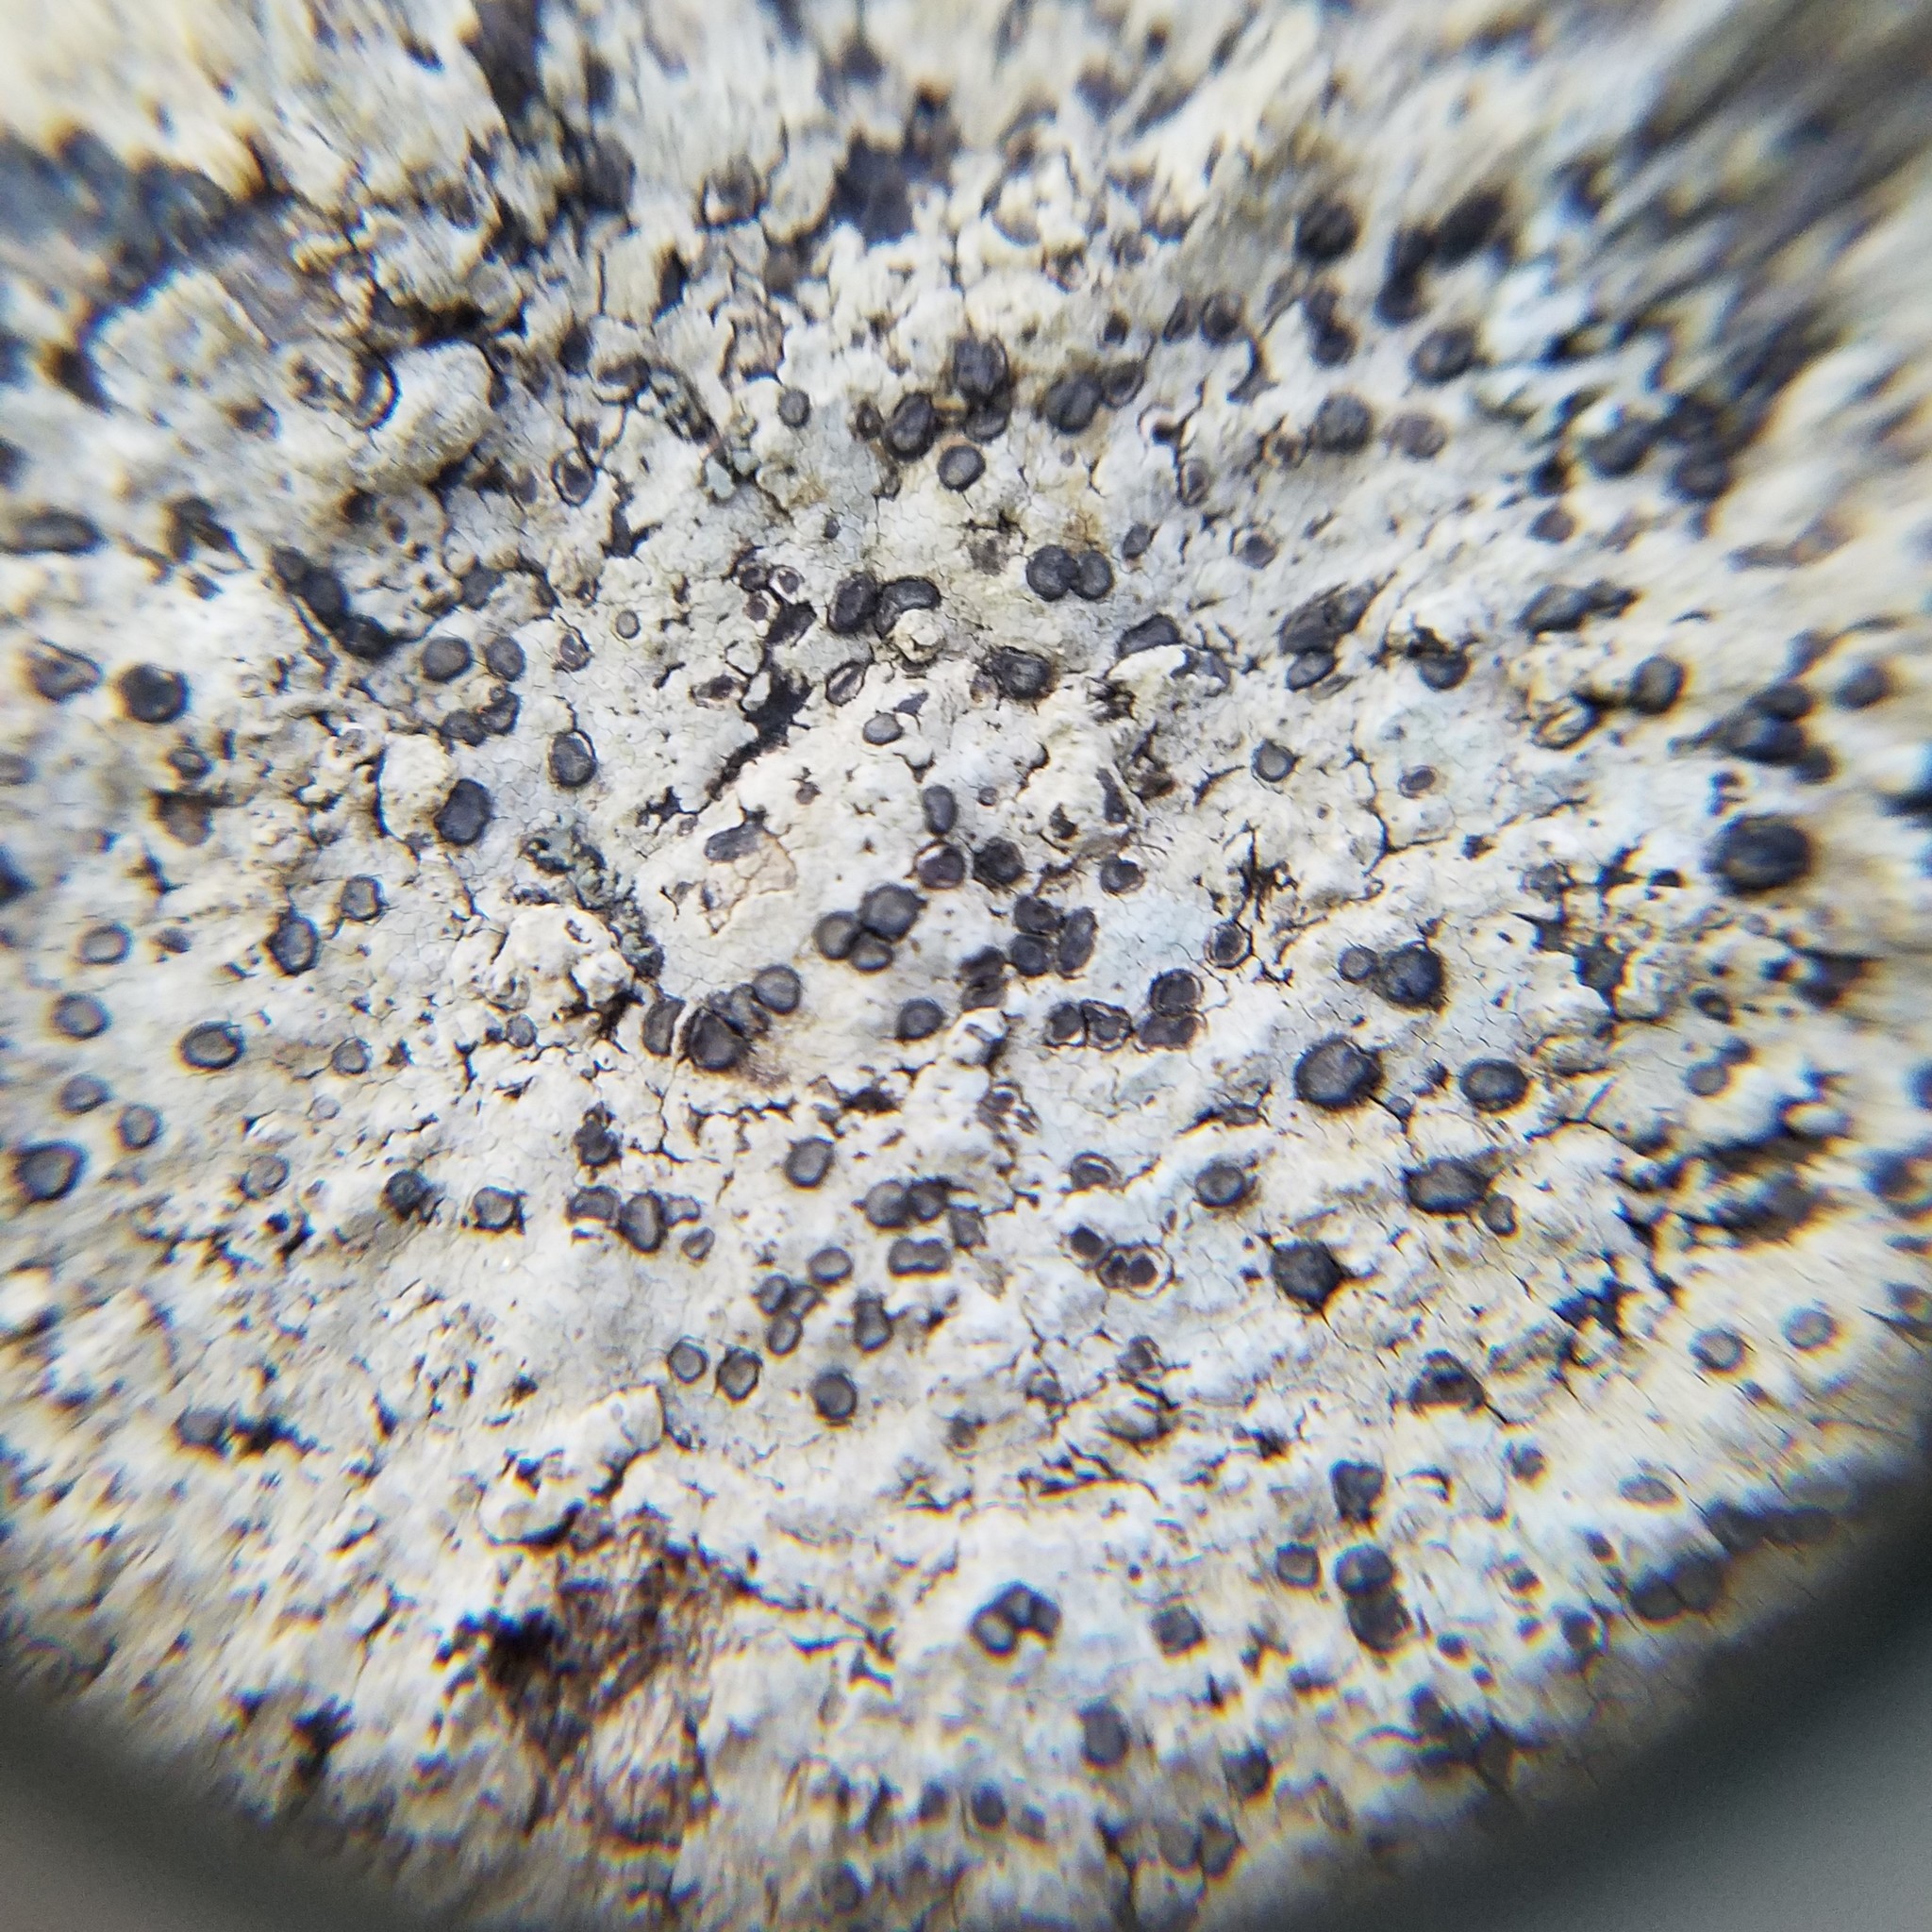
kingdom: Fungi
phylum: Ascomycota
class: Lecanoromycetes
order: Lecideales
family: Lecideaceae
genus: Porpidia
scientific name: Porpidia albocaerulescens
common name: Smokey-eyed boulder lichen
